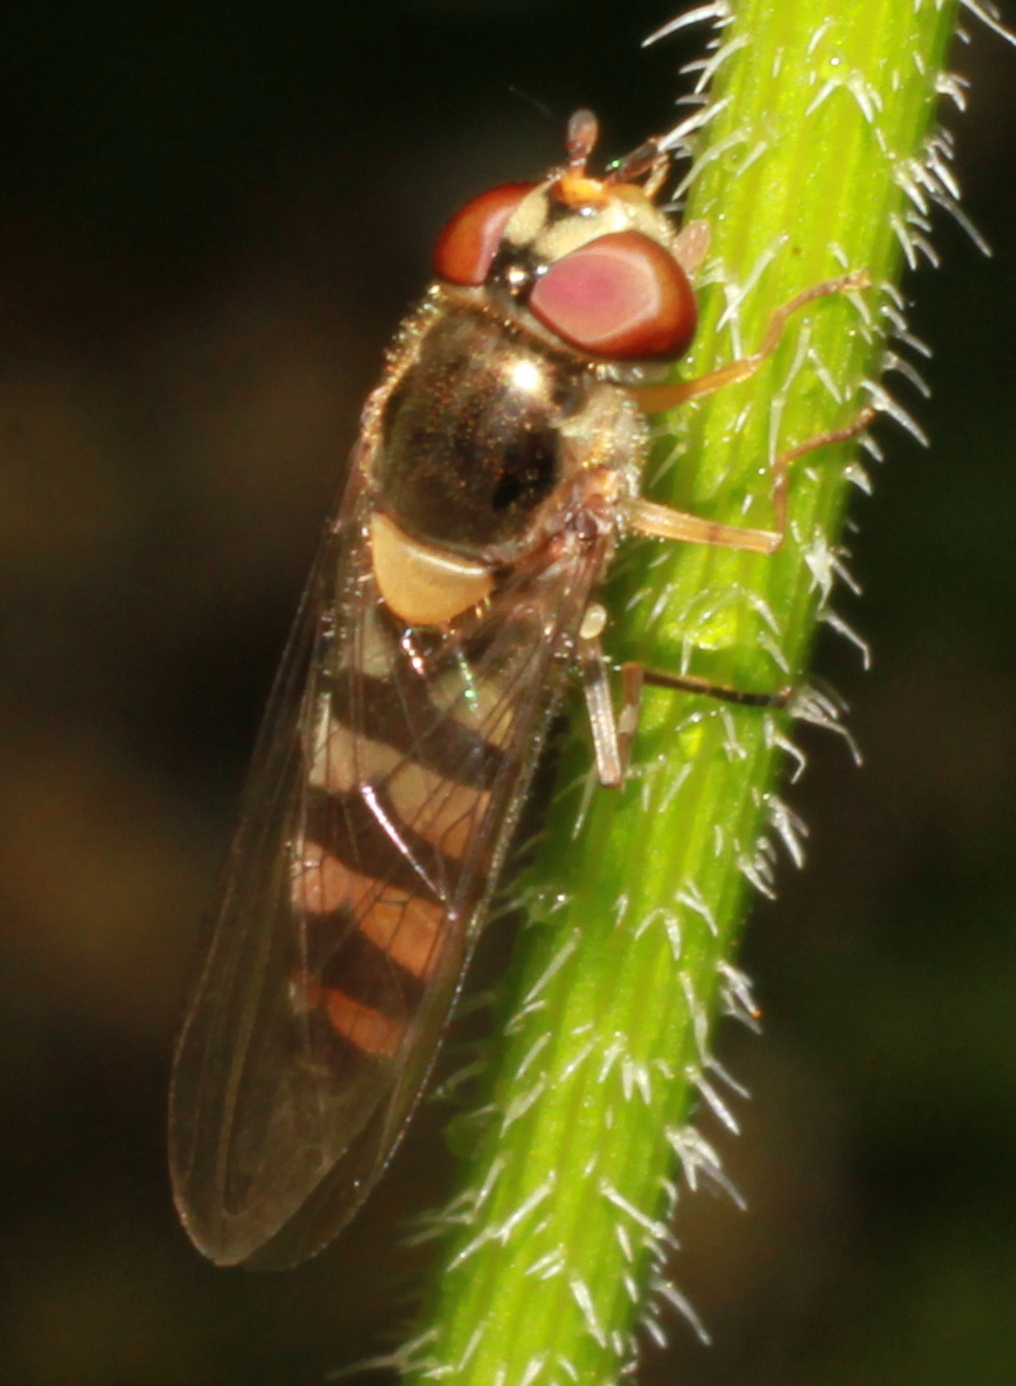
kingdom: Animalia
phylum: Arthropoda
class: Insecta
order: Diptera
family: Syrphidae
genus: Meliscaeva
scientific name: Meliscaeva auricollis
